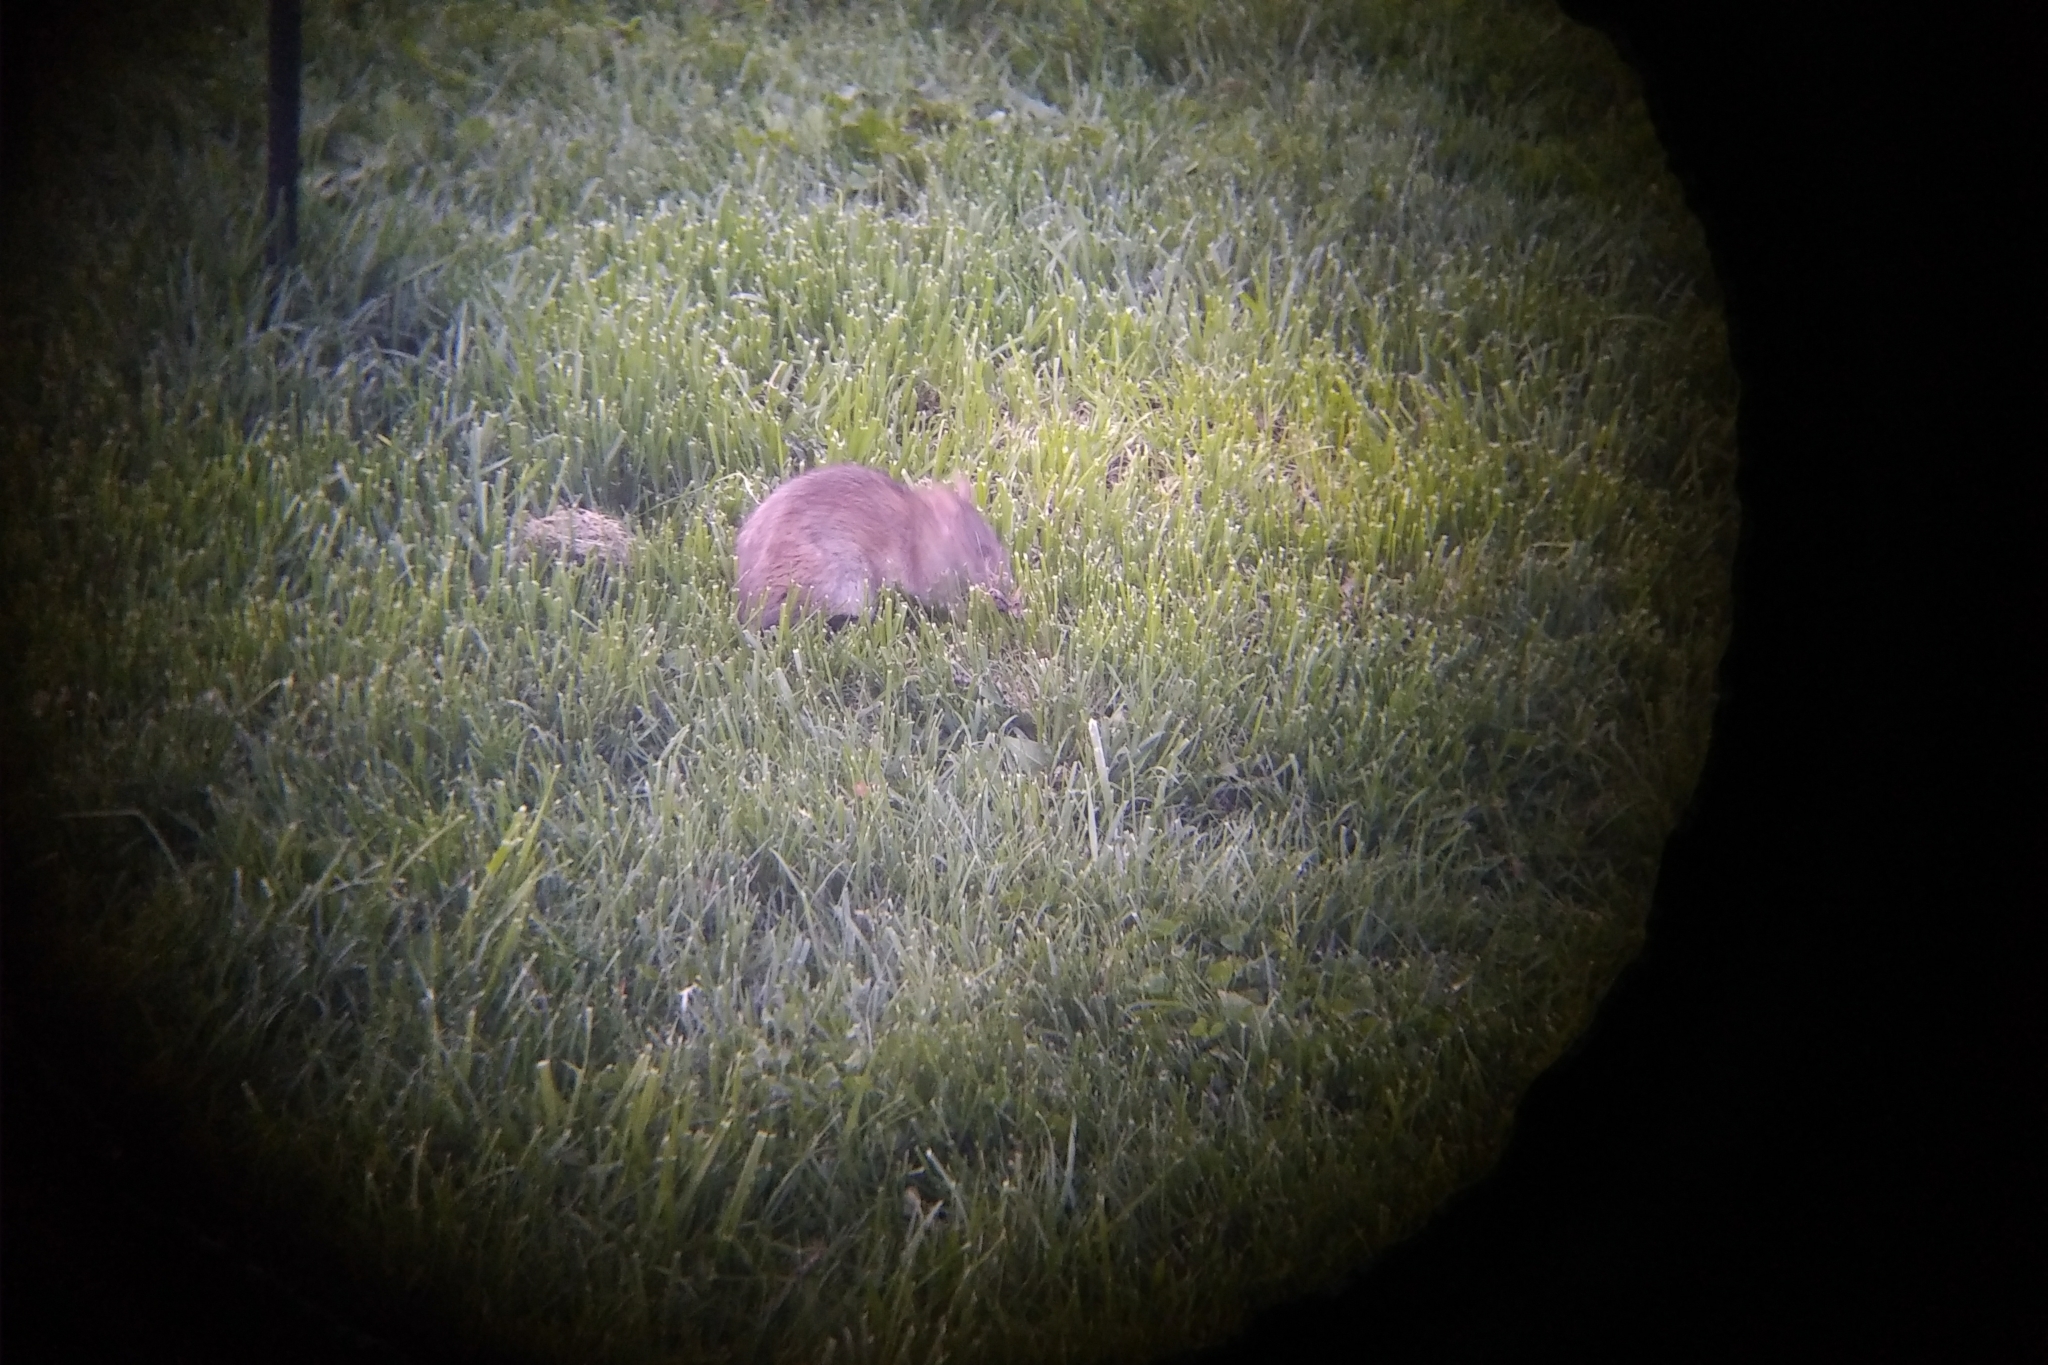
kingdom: Animalia
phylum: Chordata
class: Mammalia
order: Rodentia
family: Muridae
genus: Rattus
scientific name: Rattus norvegicus
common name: Brown rat
